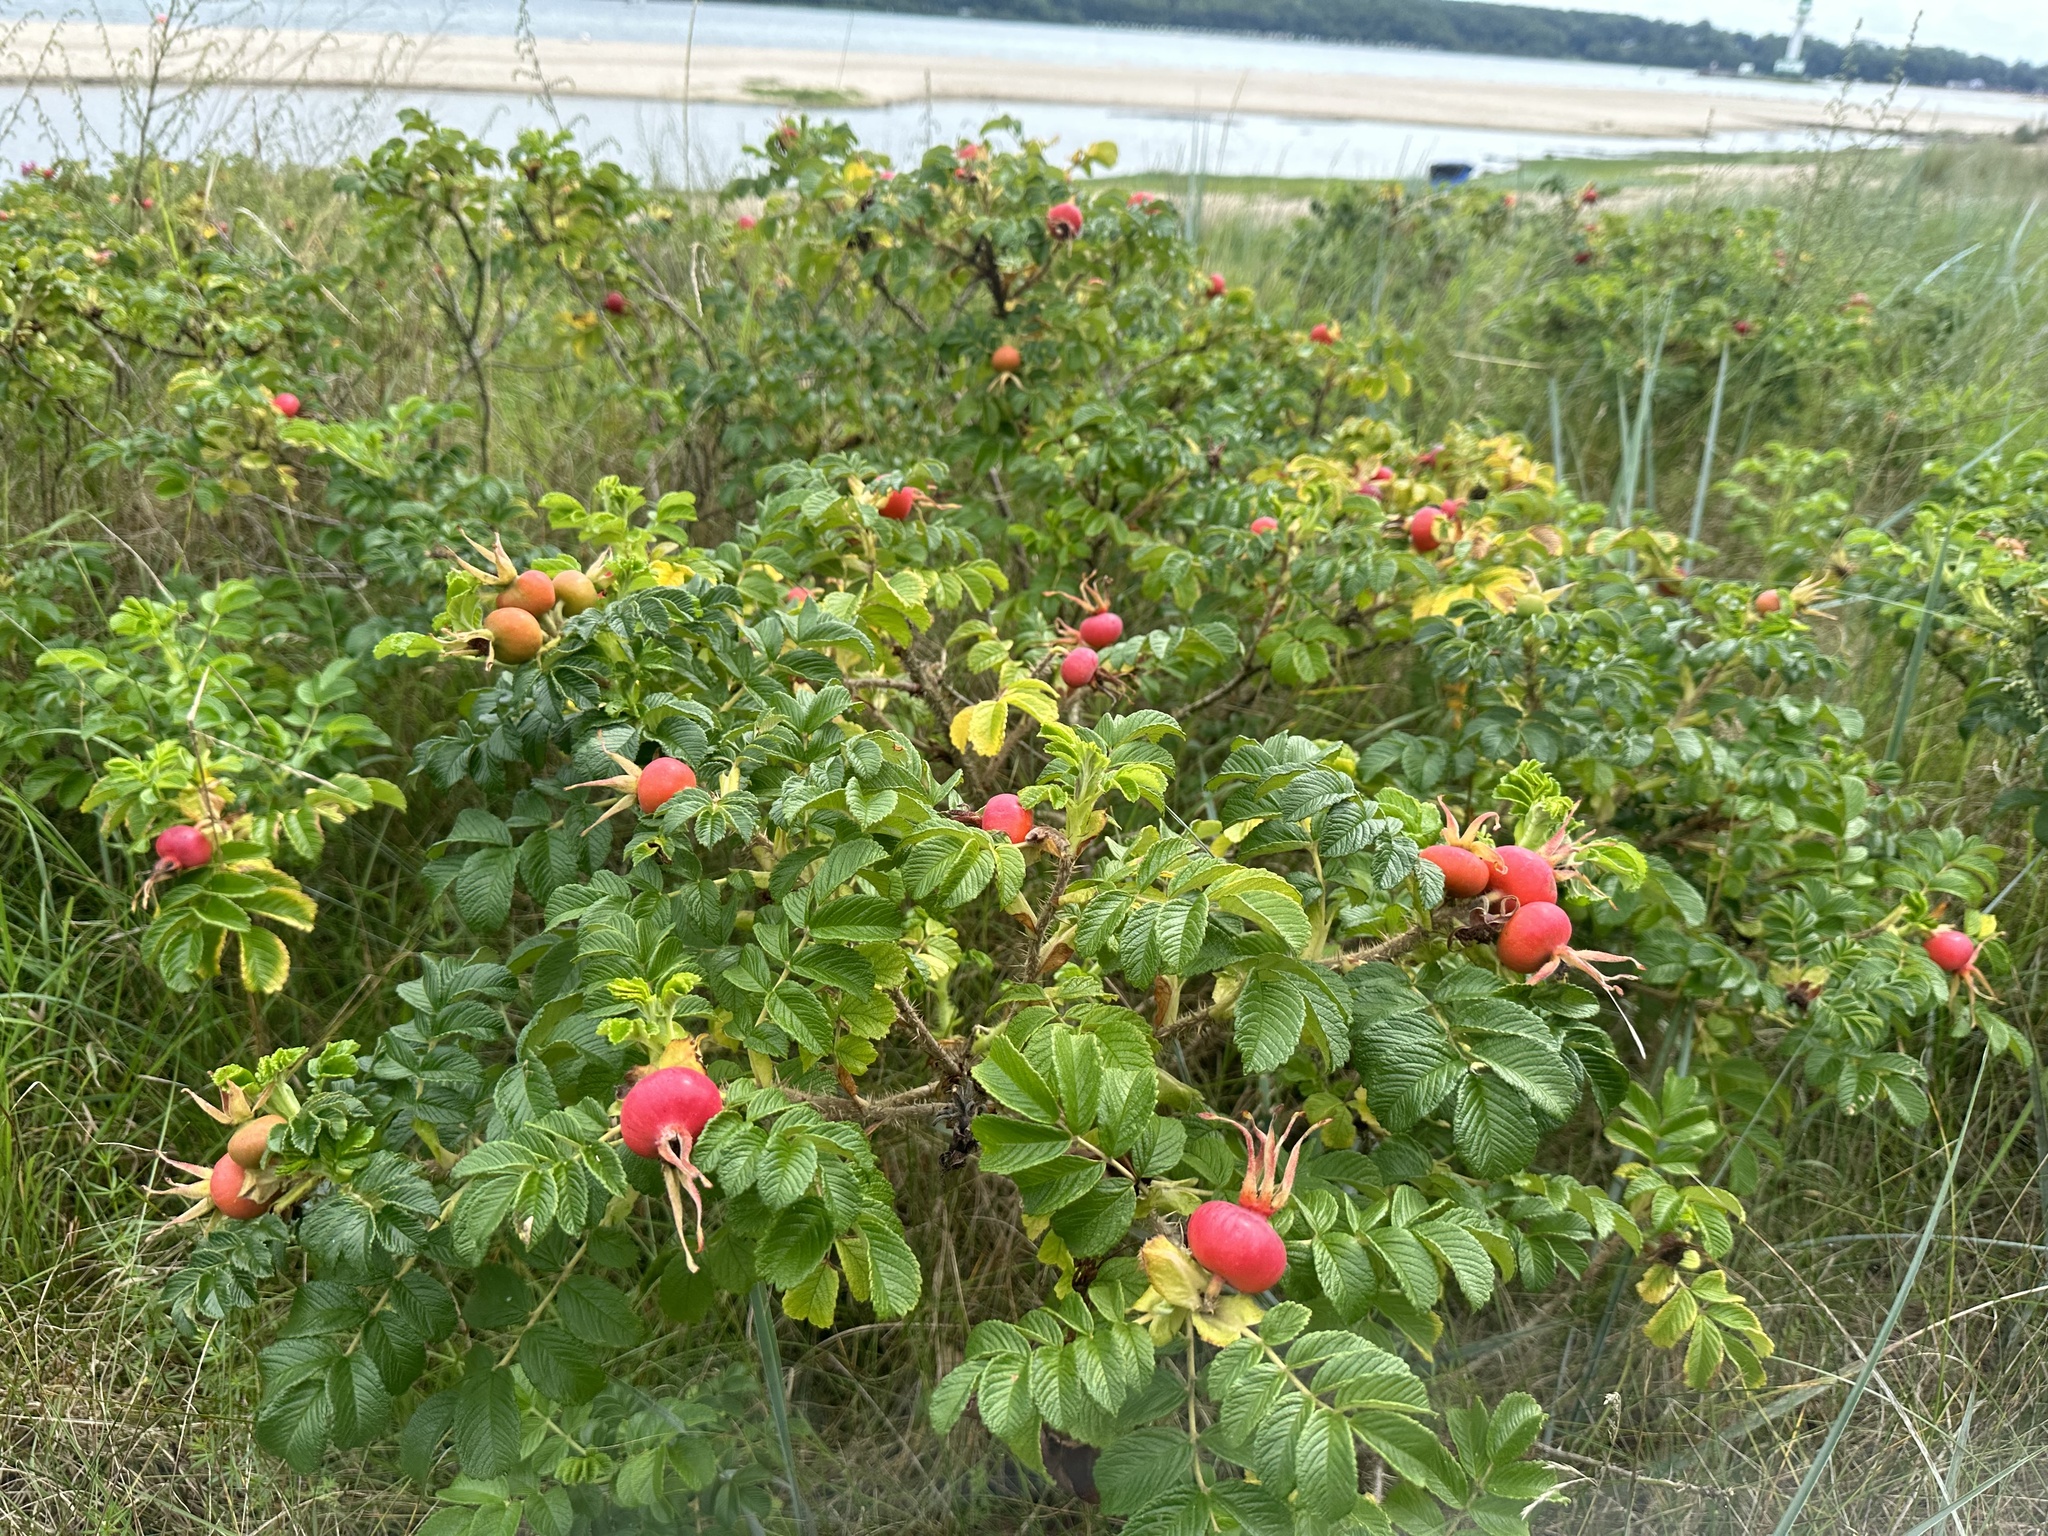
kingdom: Plantae
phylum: Tracheophyta
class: Magnoliopsida
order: Rosales
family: Rosaceae
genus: Rosa
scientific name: Rosa rugosa
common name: Japanese rose
